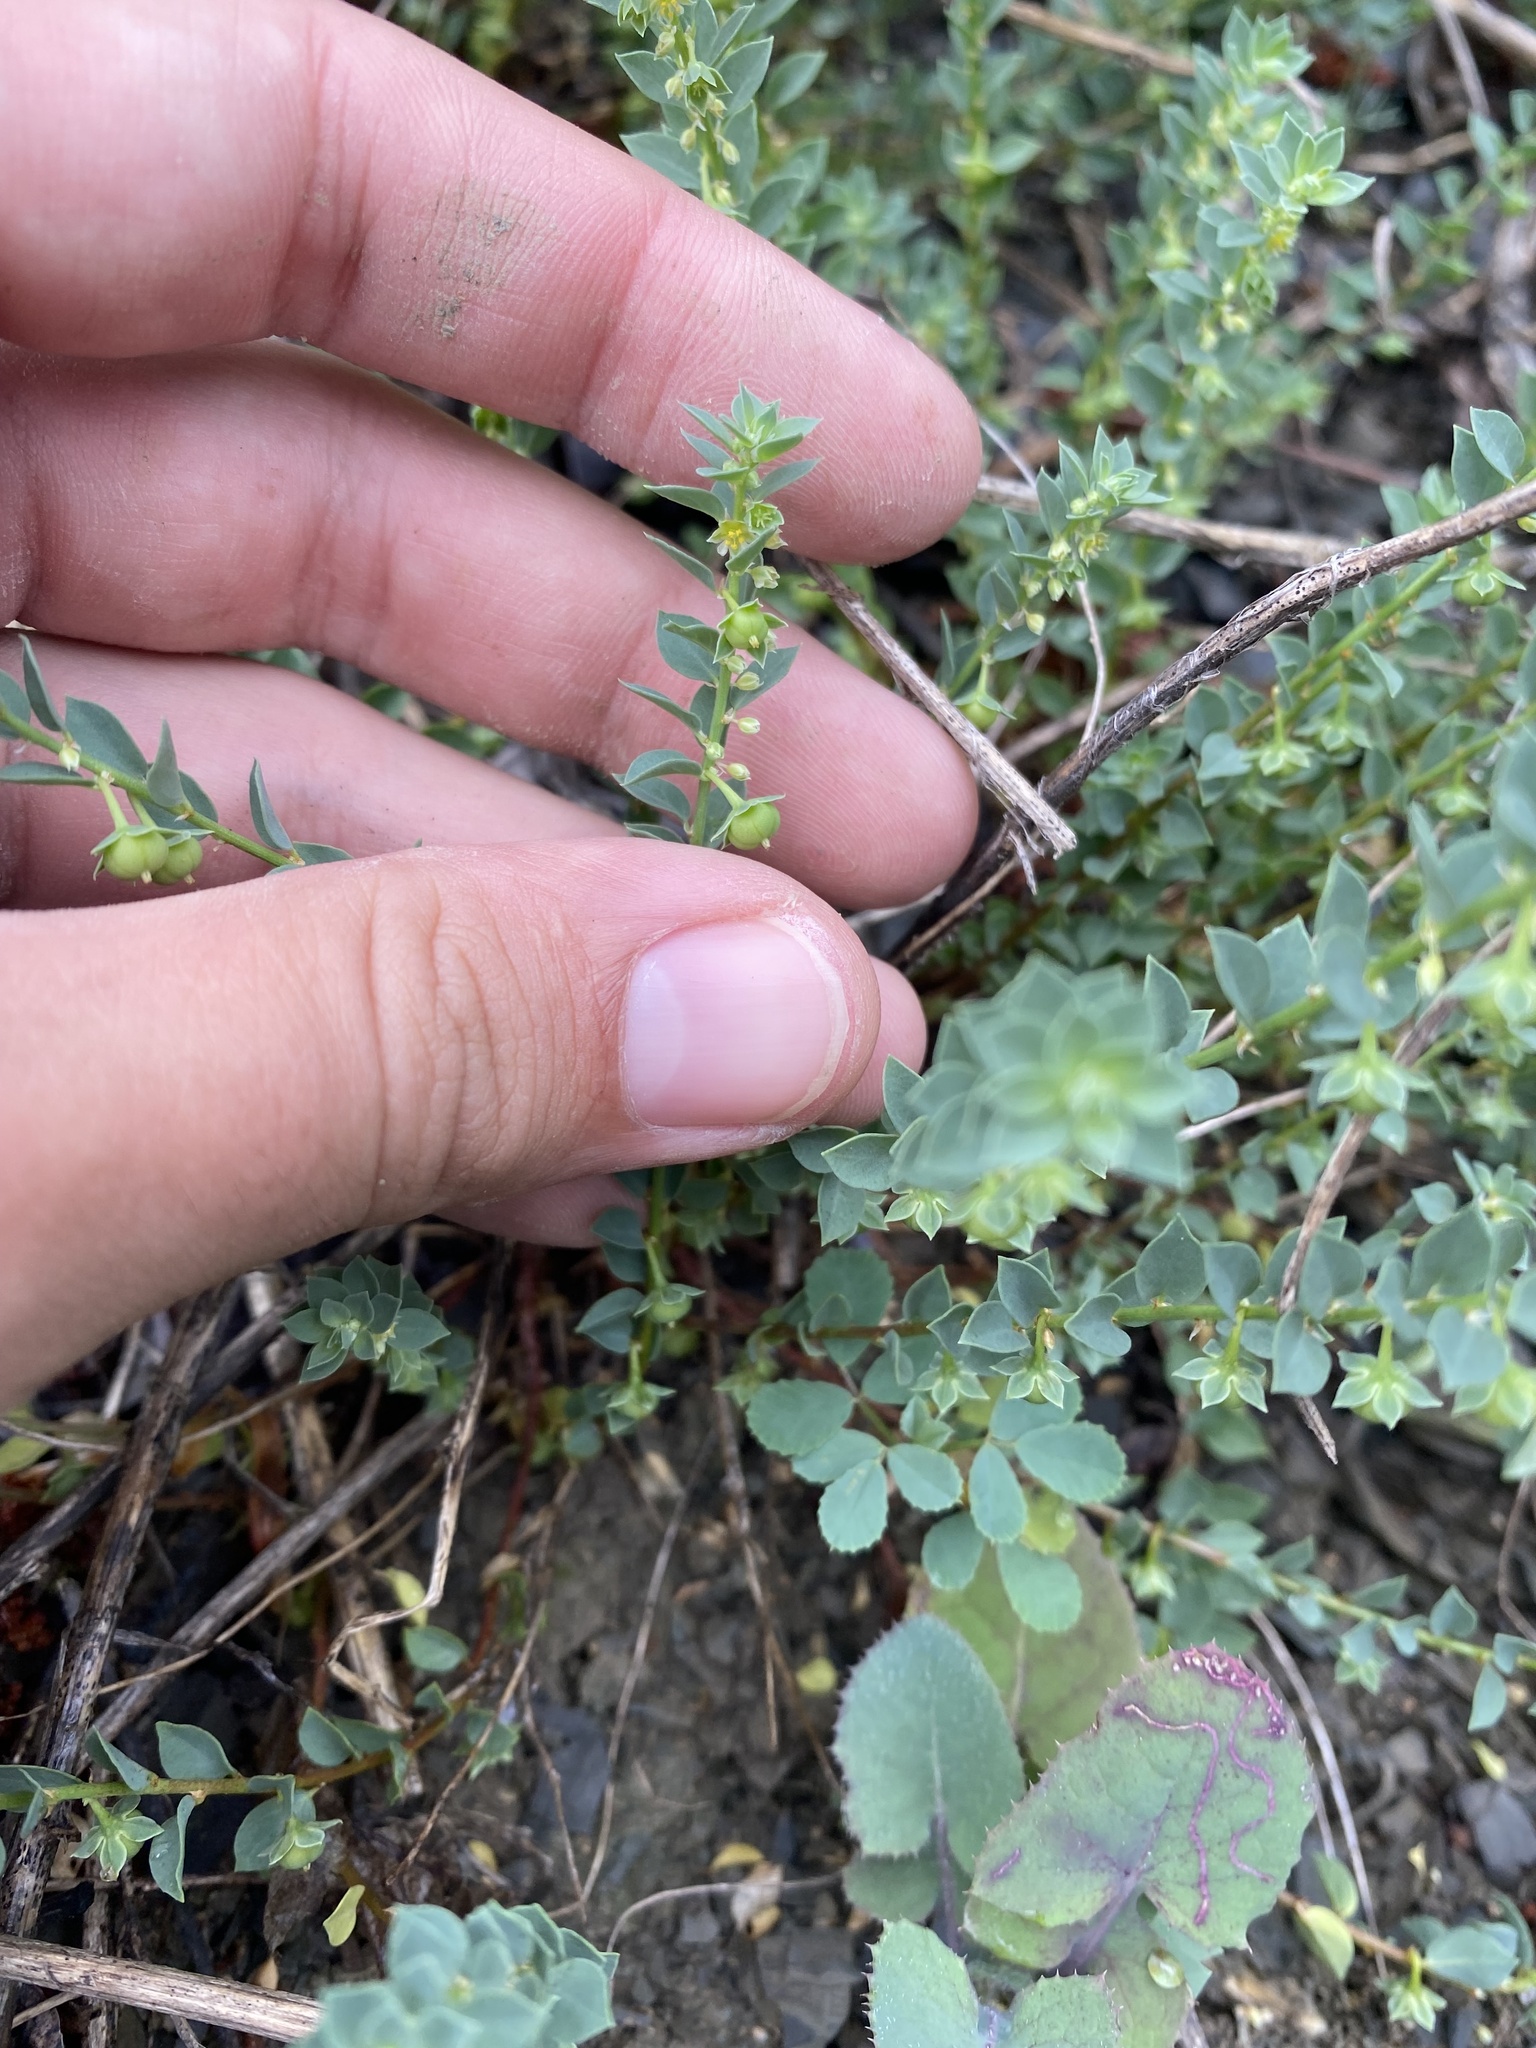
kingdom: Plantae
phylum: Tracheophyta
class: Magnoliopsida
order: Malpighiales
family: Phyllanthaceae
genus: Andrachne
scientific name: Andrachne telephioides
